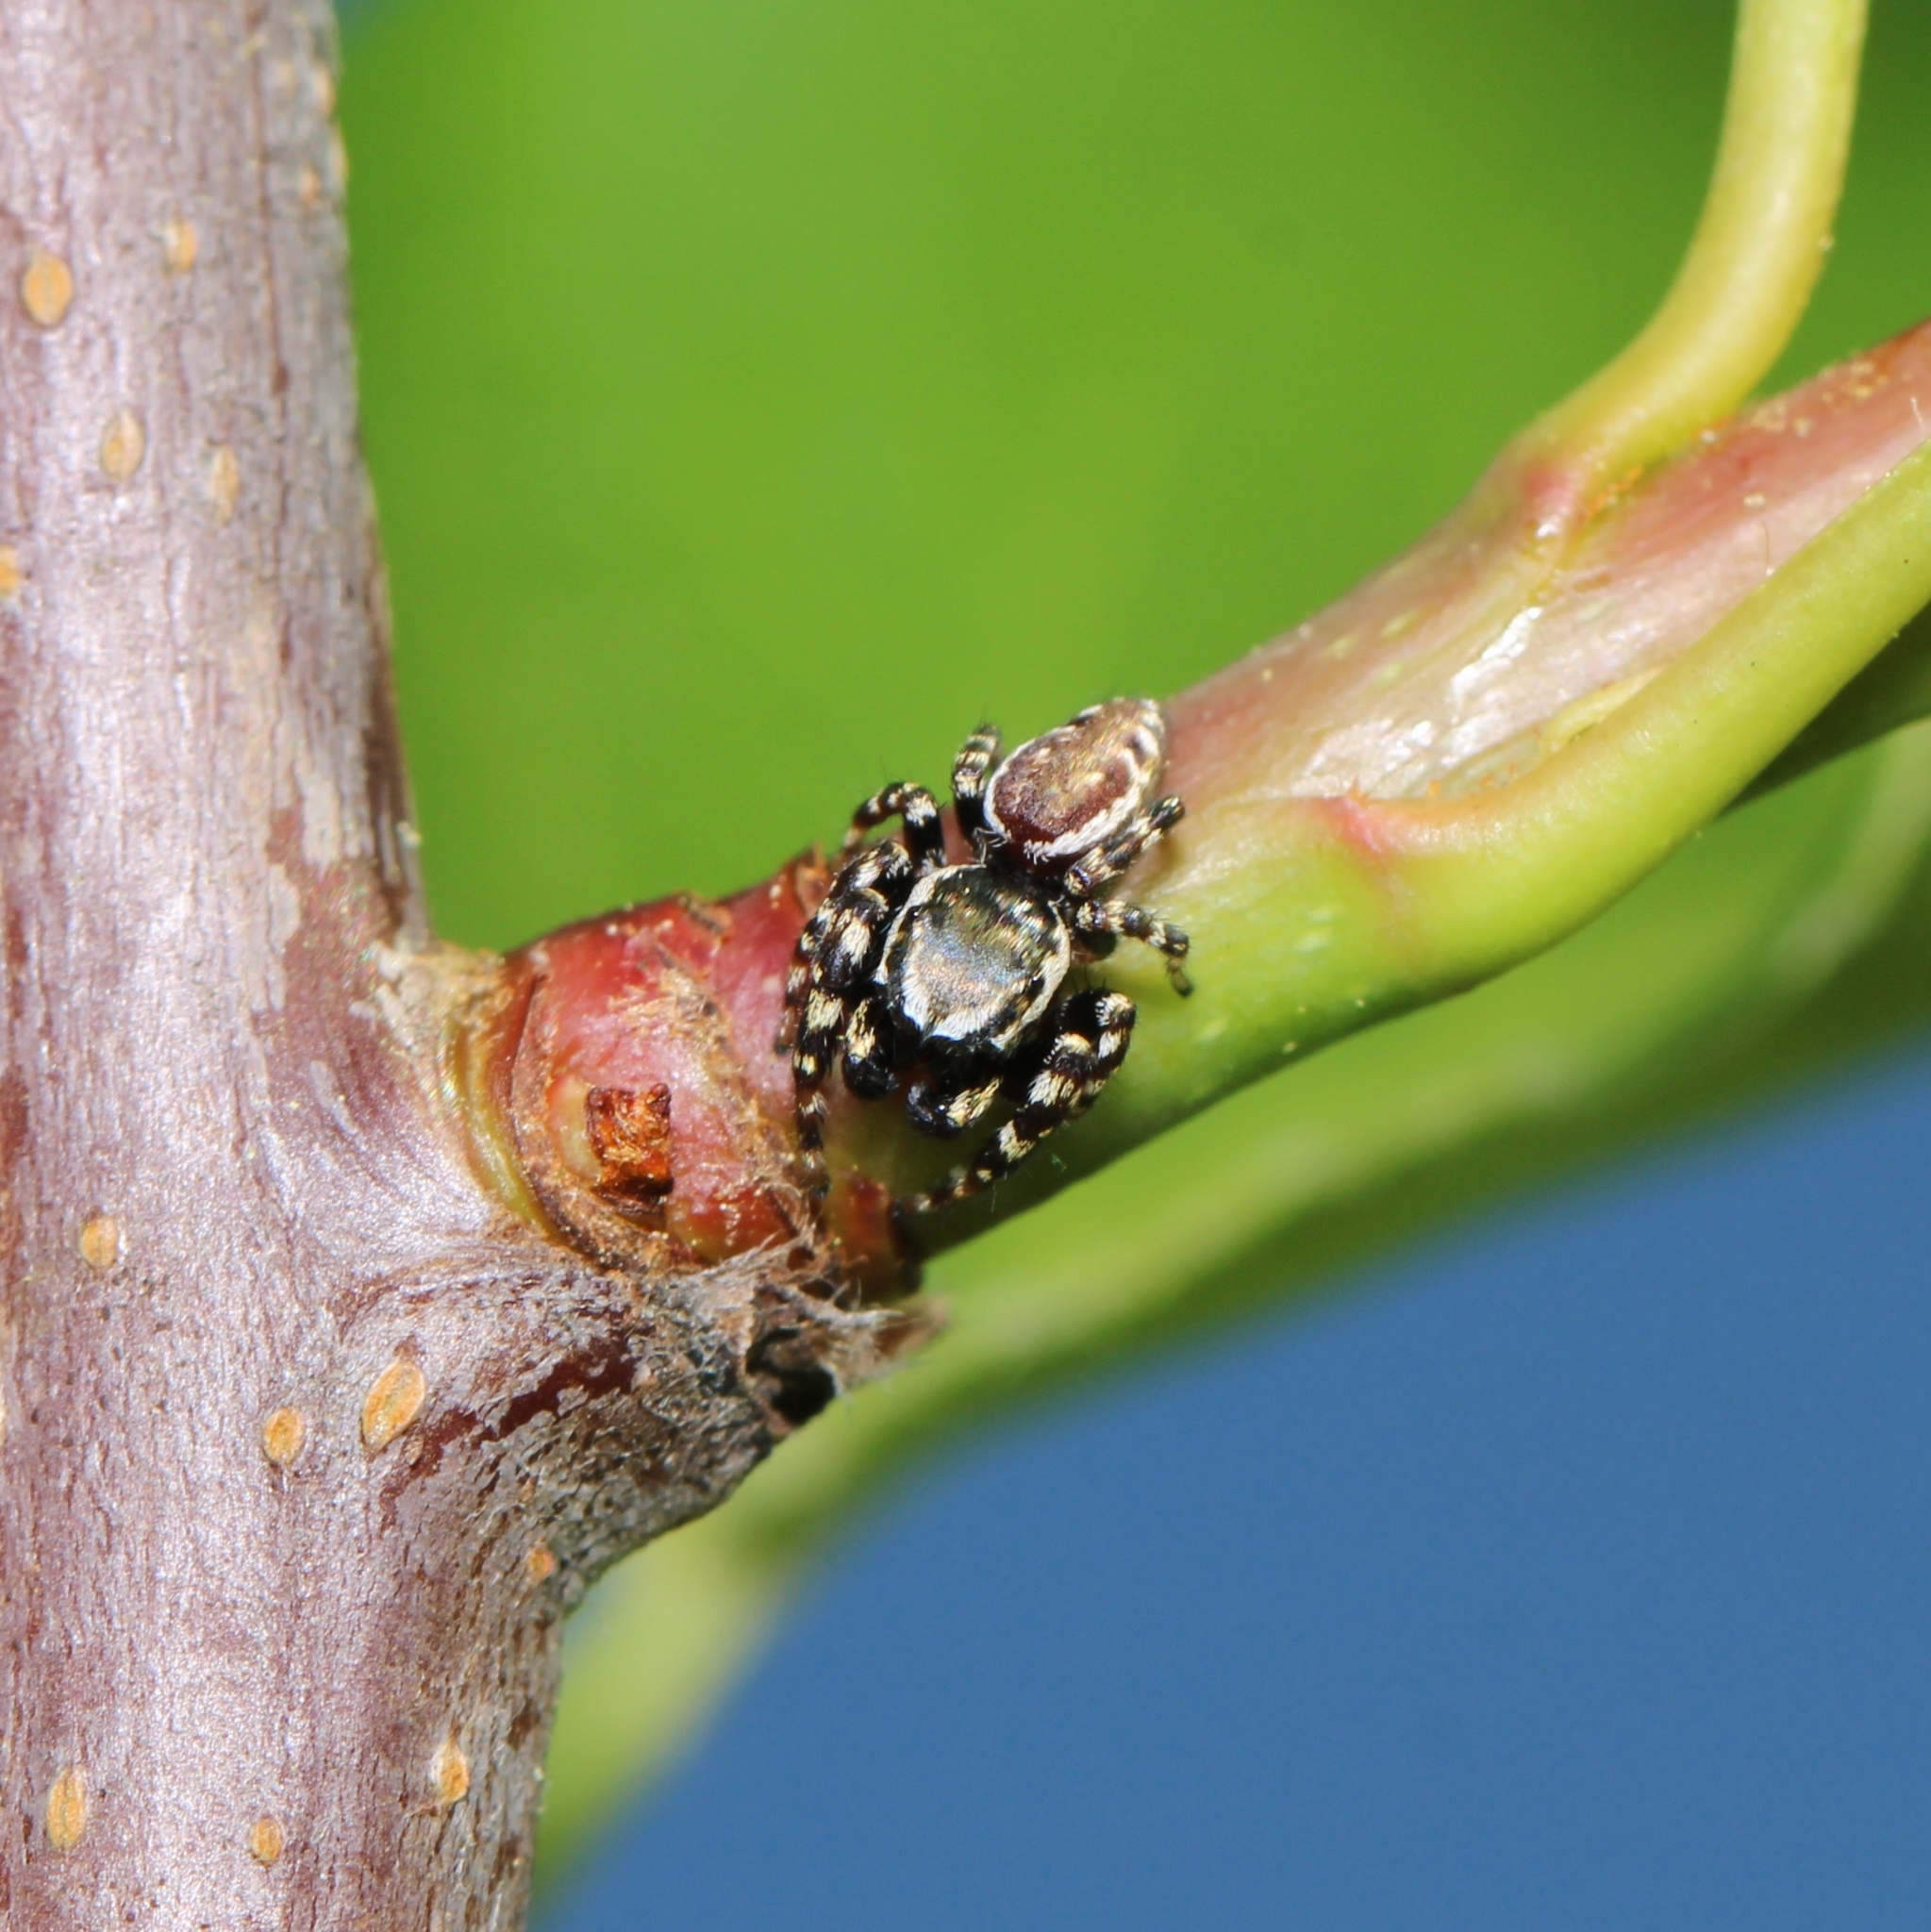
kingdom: Animalia
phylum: Arthropoda
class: Arachnida
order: Araneae
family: Salticidae
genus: Pelegrina
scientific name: Pelegrina galathea
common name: Jumping spiders
